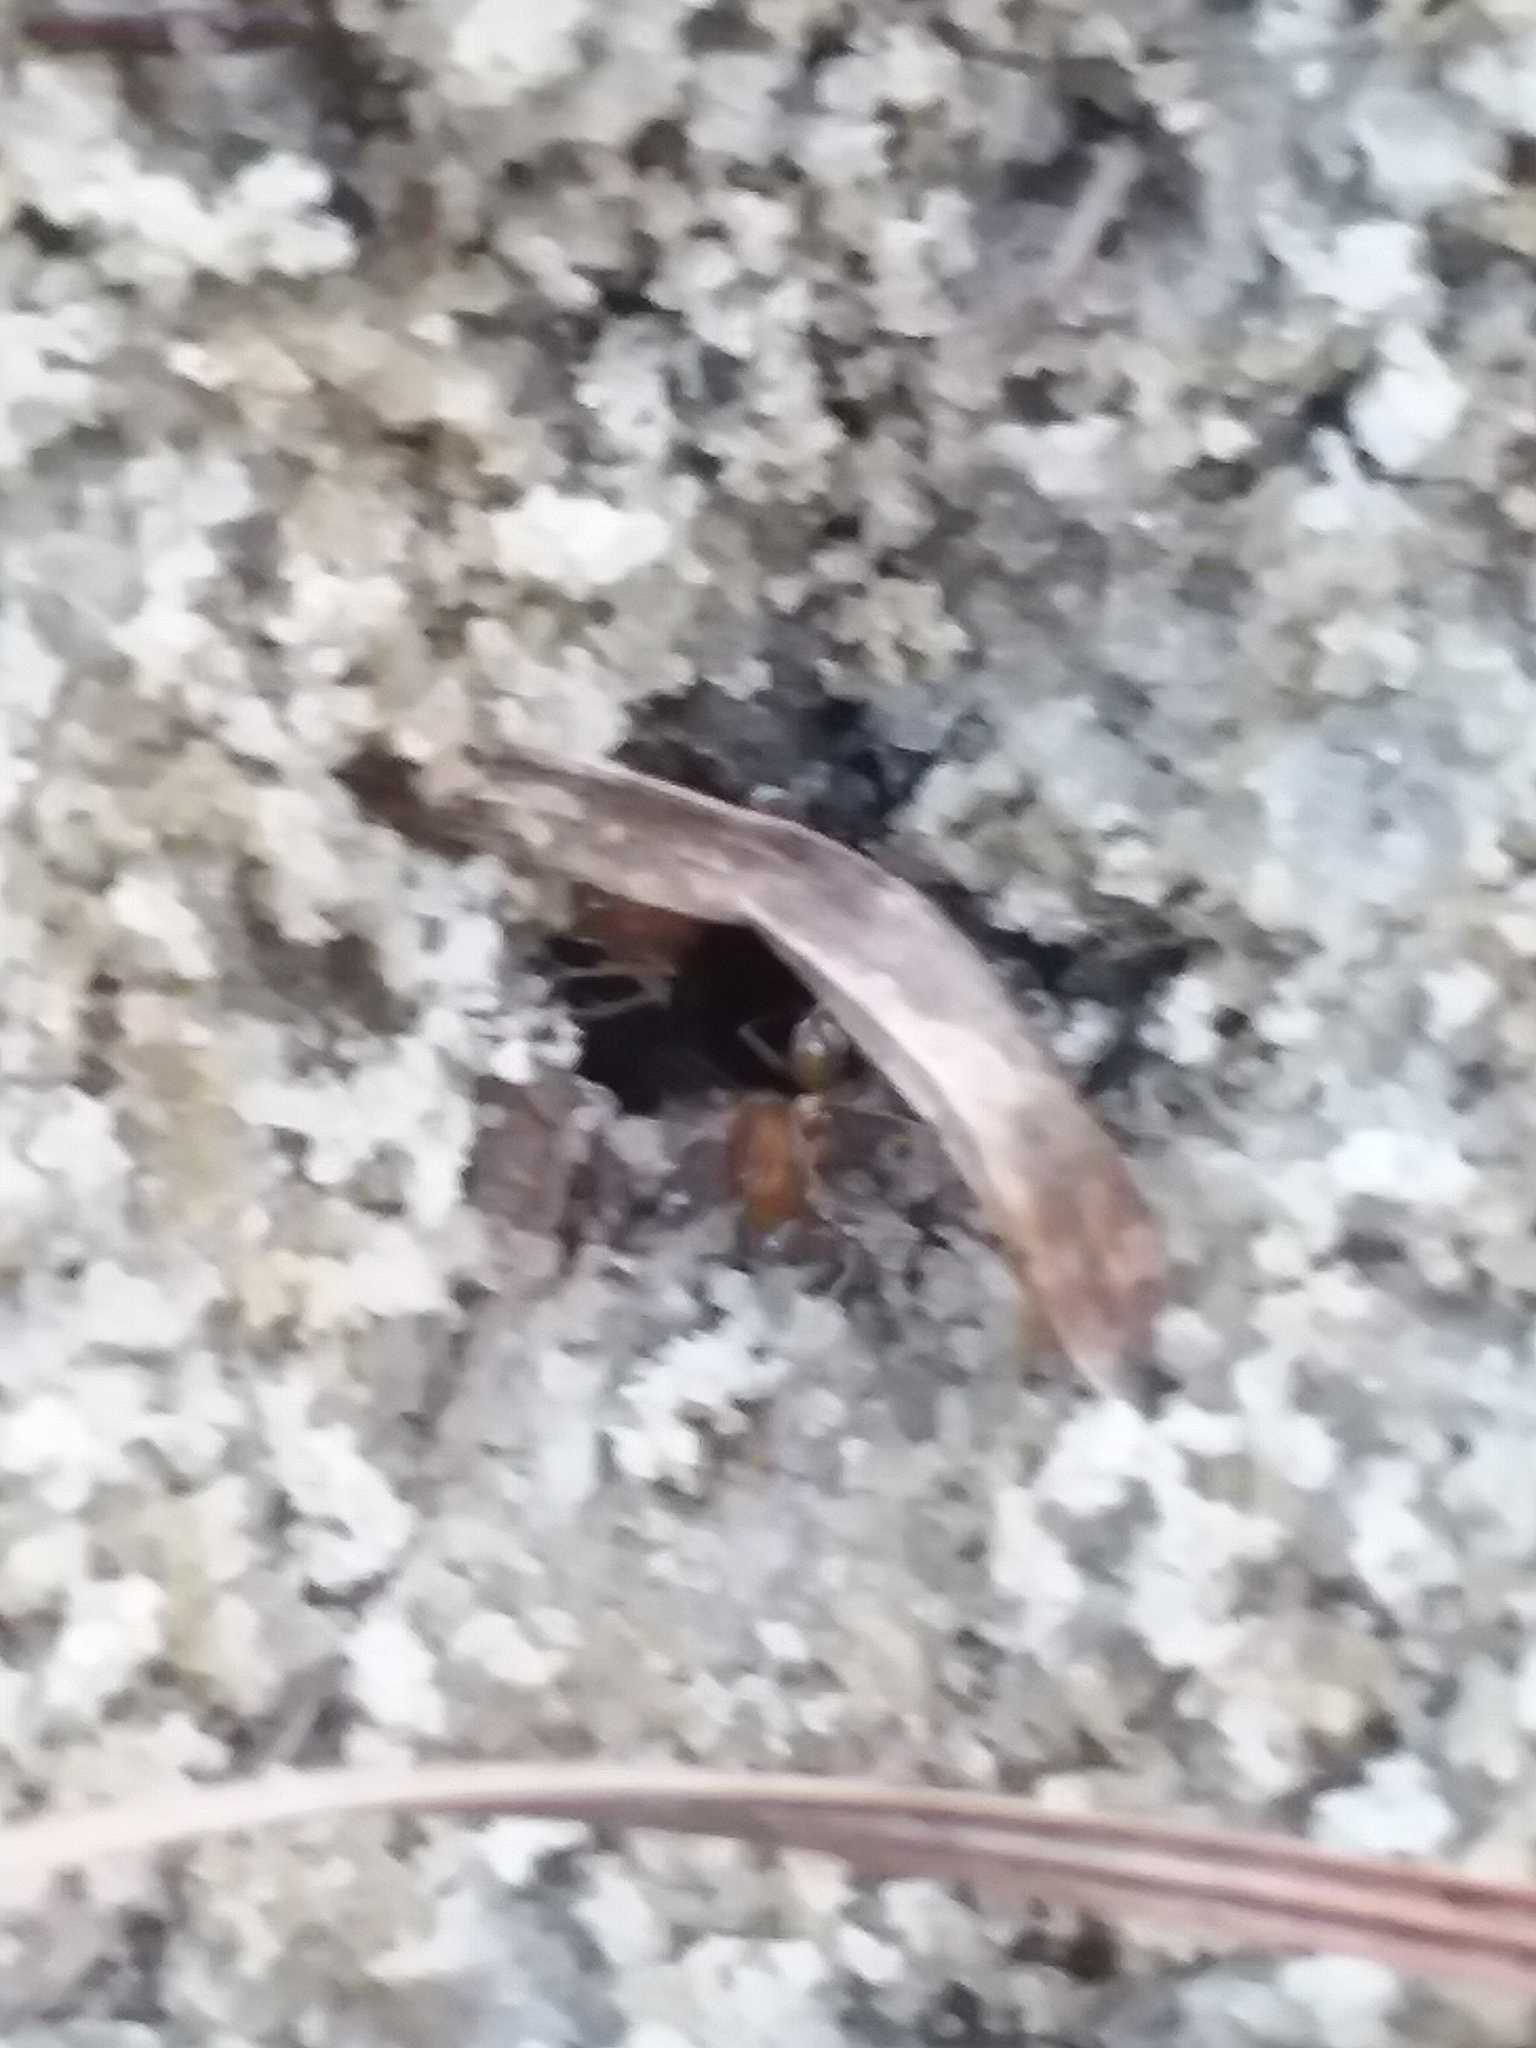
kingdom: Animalia
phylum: Arthropoda
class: Insecta
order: Hymenoptera
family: Formicidae
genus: Dorymyrmex
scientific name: Dorymyrmex bureni
